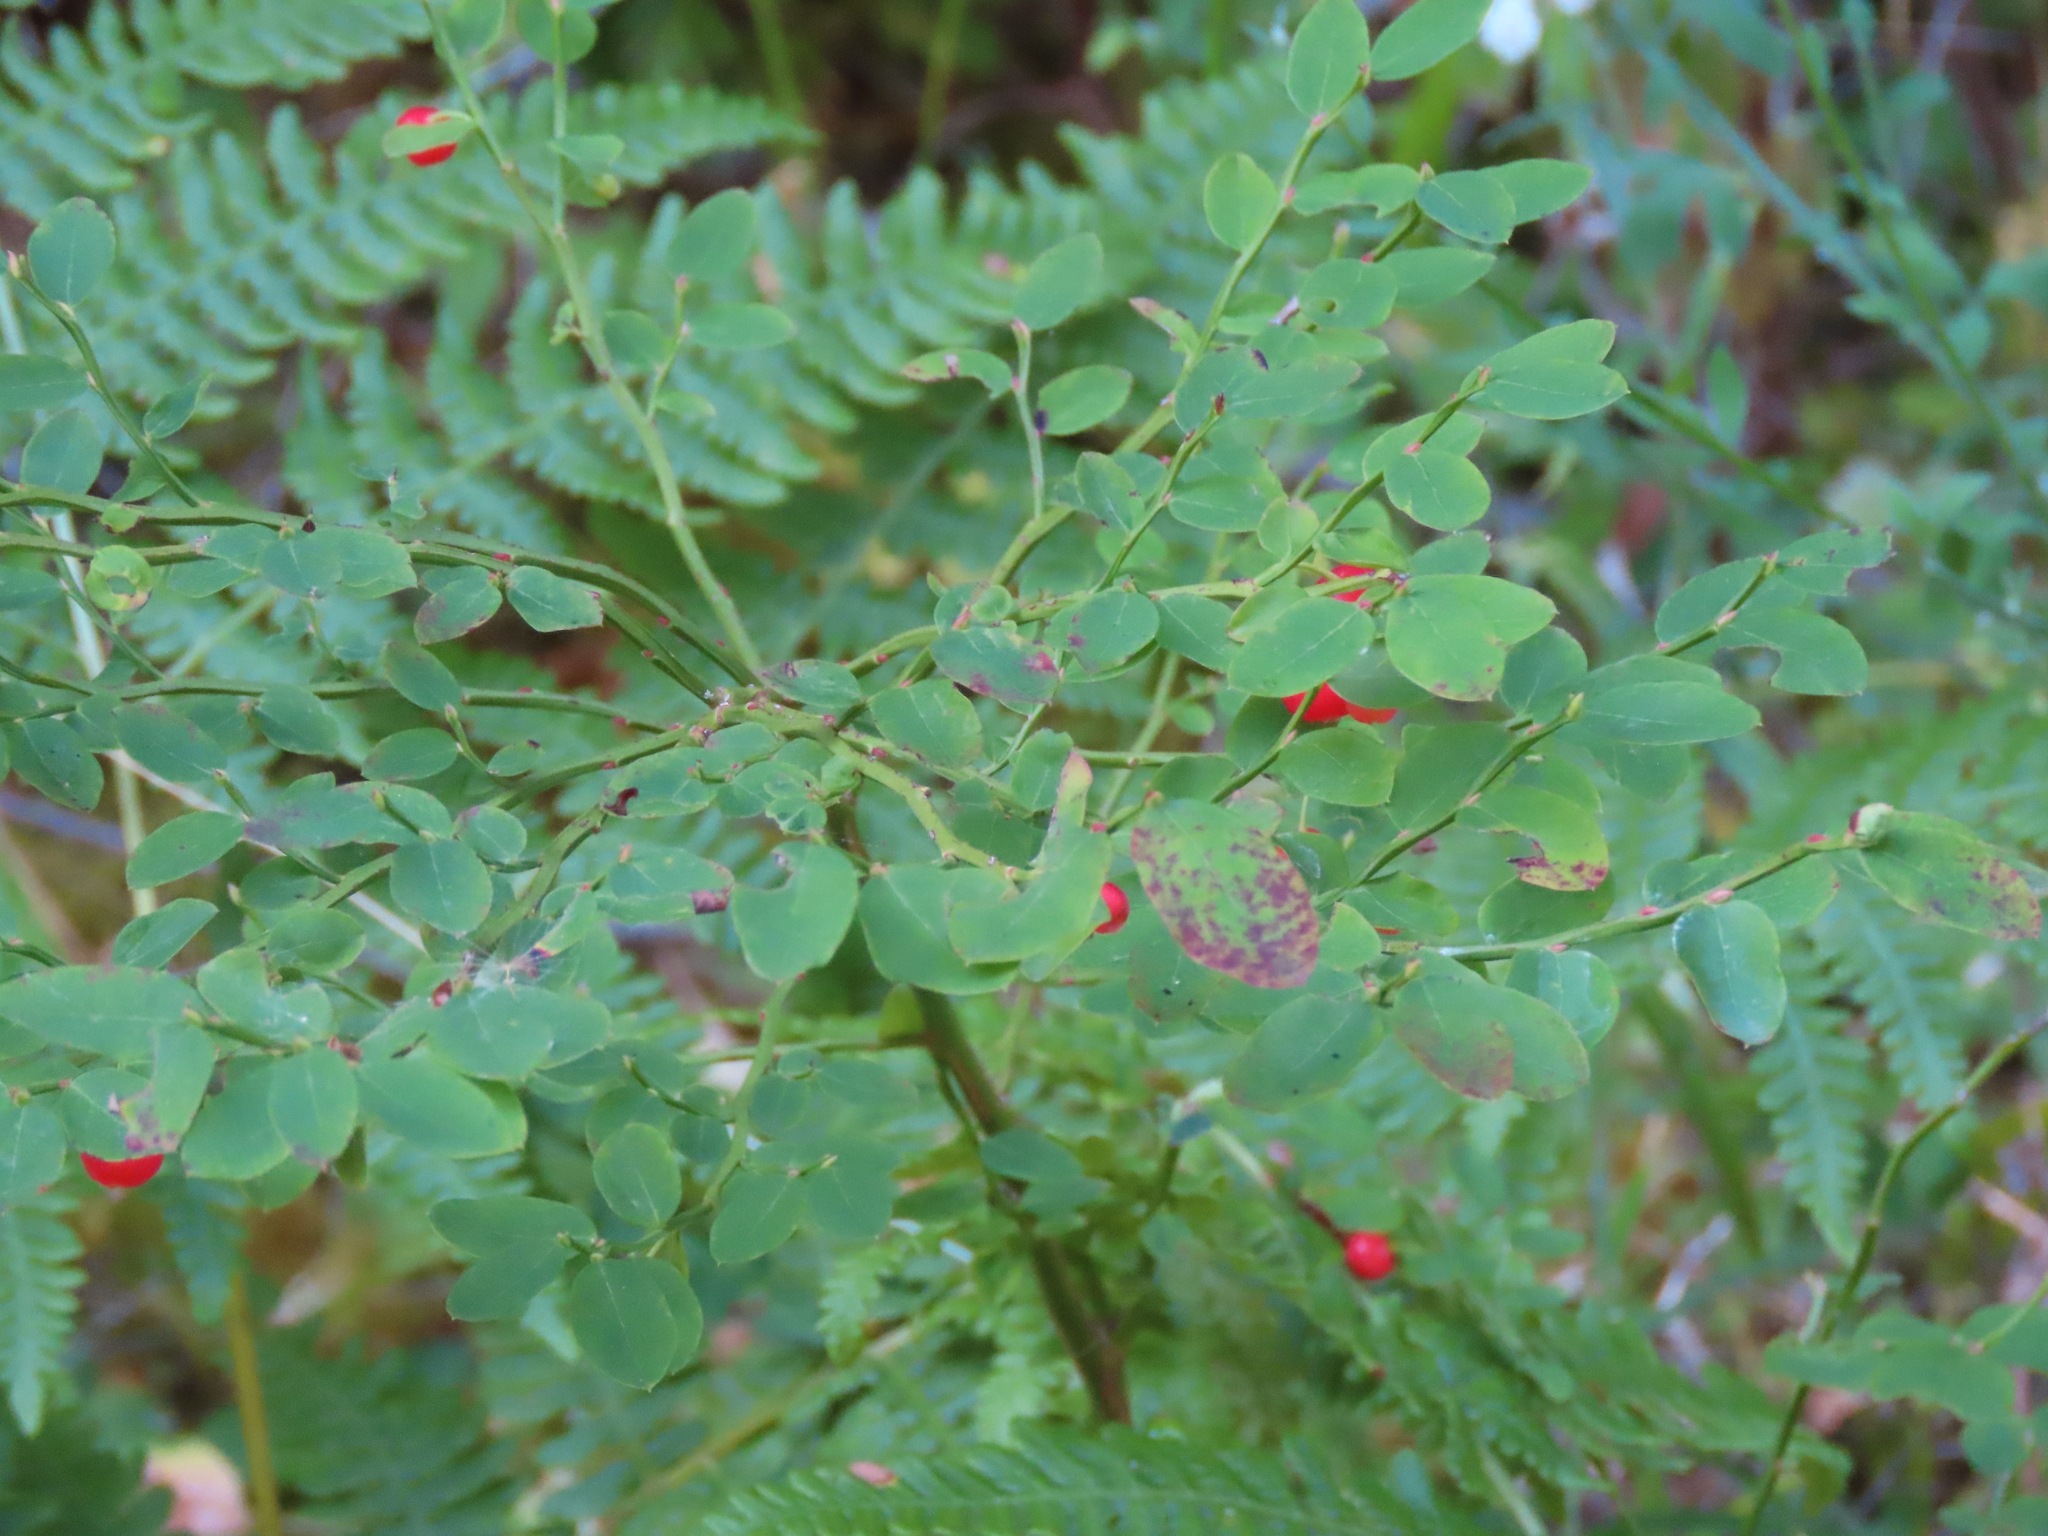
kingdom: Plantae
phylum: Tracheophyta
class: Magnoliopsida
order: Ericales
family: Ericaceae
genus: Vaccinium
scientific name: Vaccinium parvifolium
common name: Red-huckleberry
